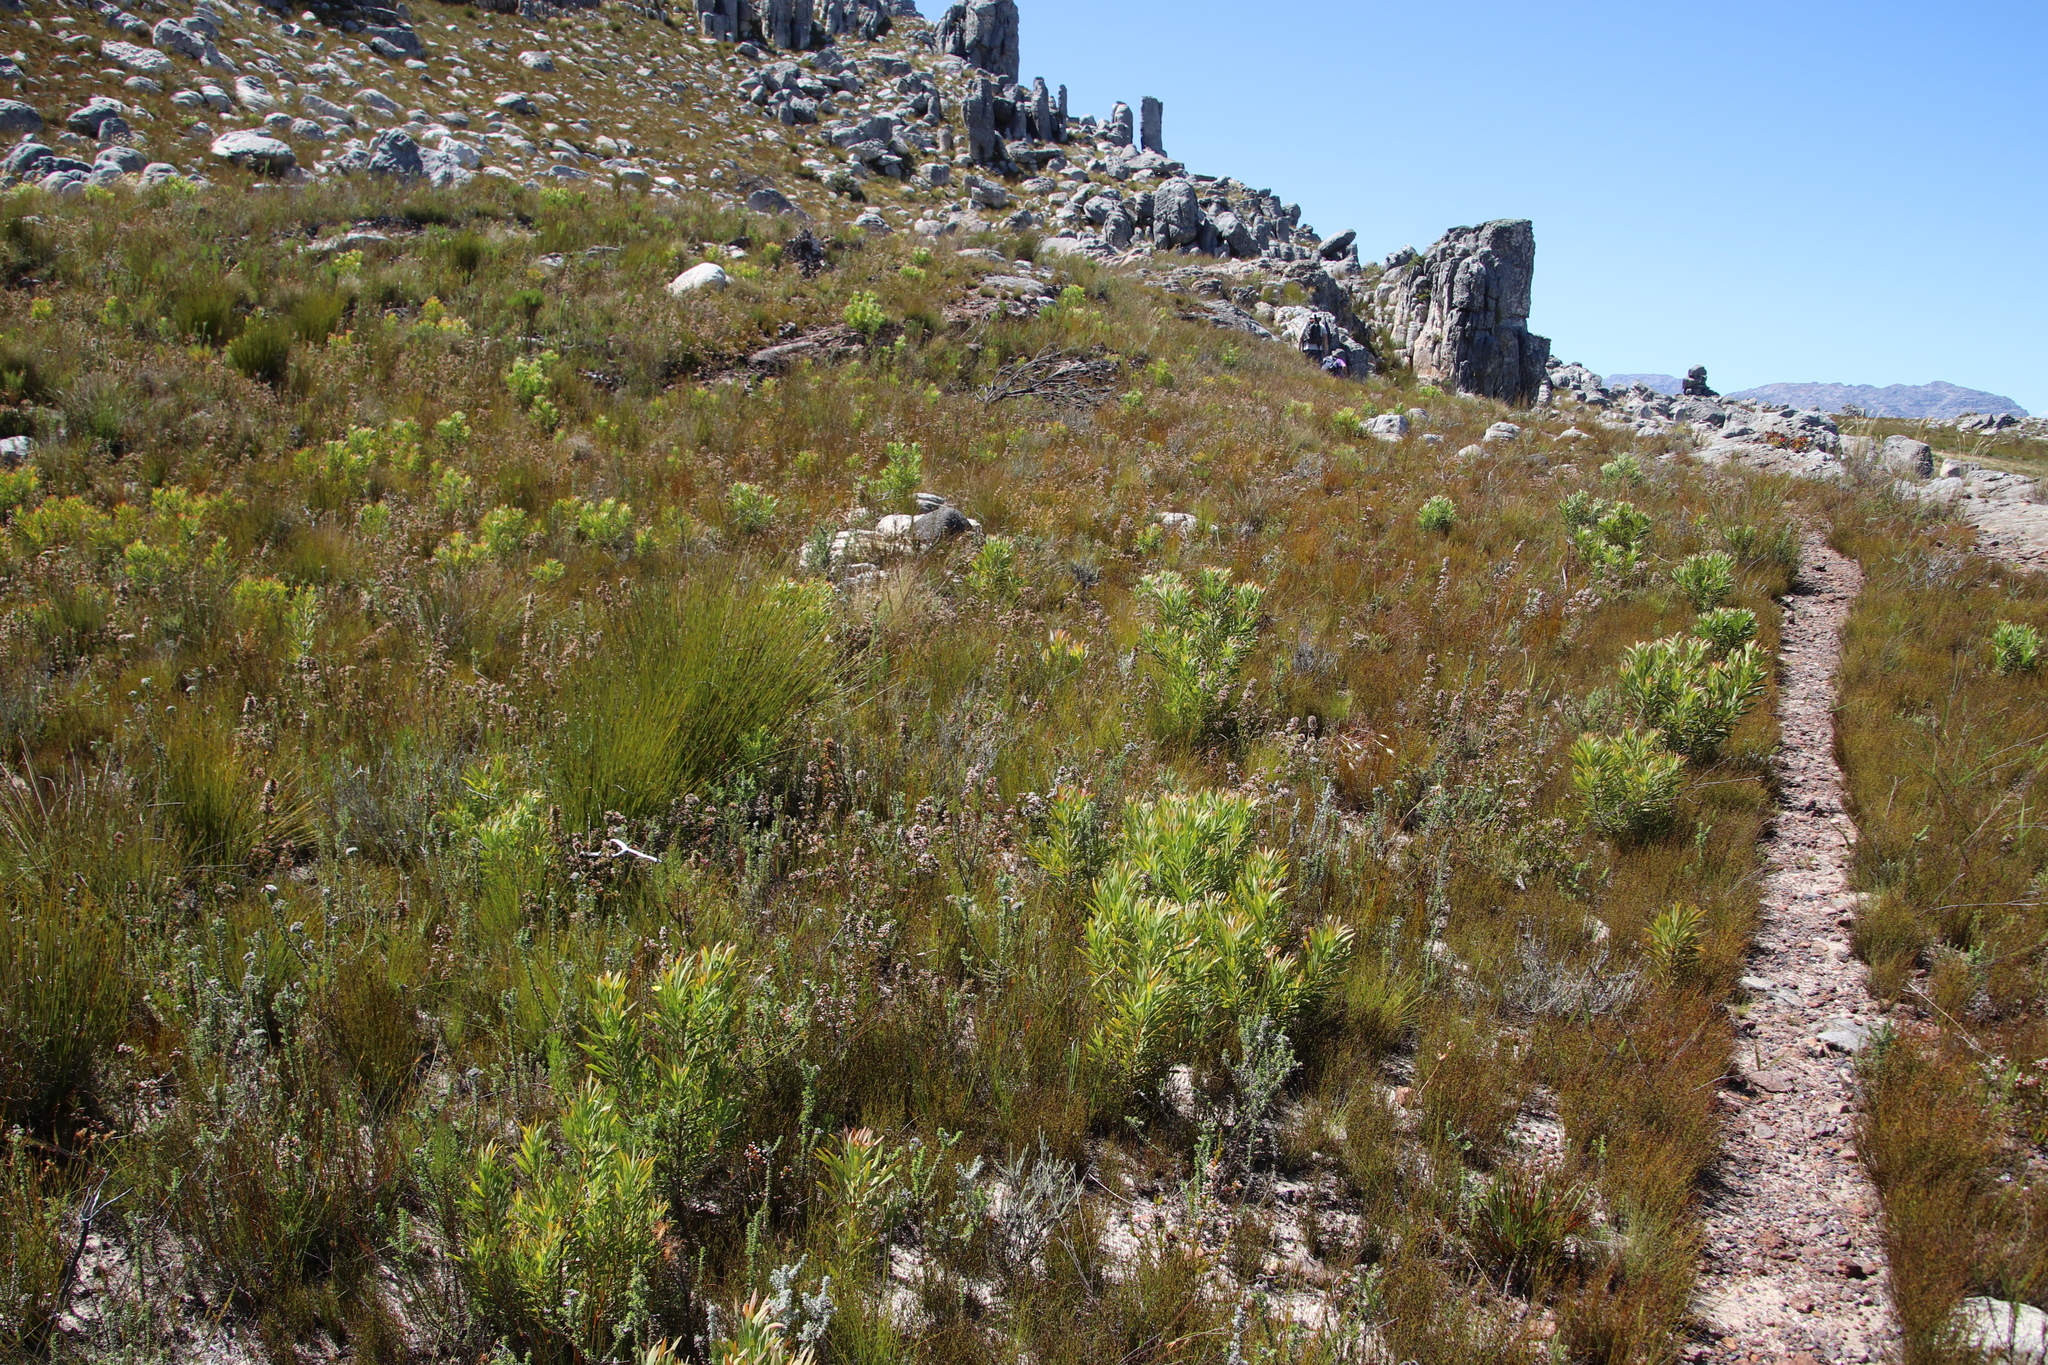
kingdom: Plantae
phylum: Tracheophyta
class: Magnoliopsida
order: Proteales
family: Proteaceae
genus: Protea
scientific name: Protea repens
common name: Sugarbush
